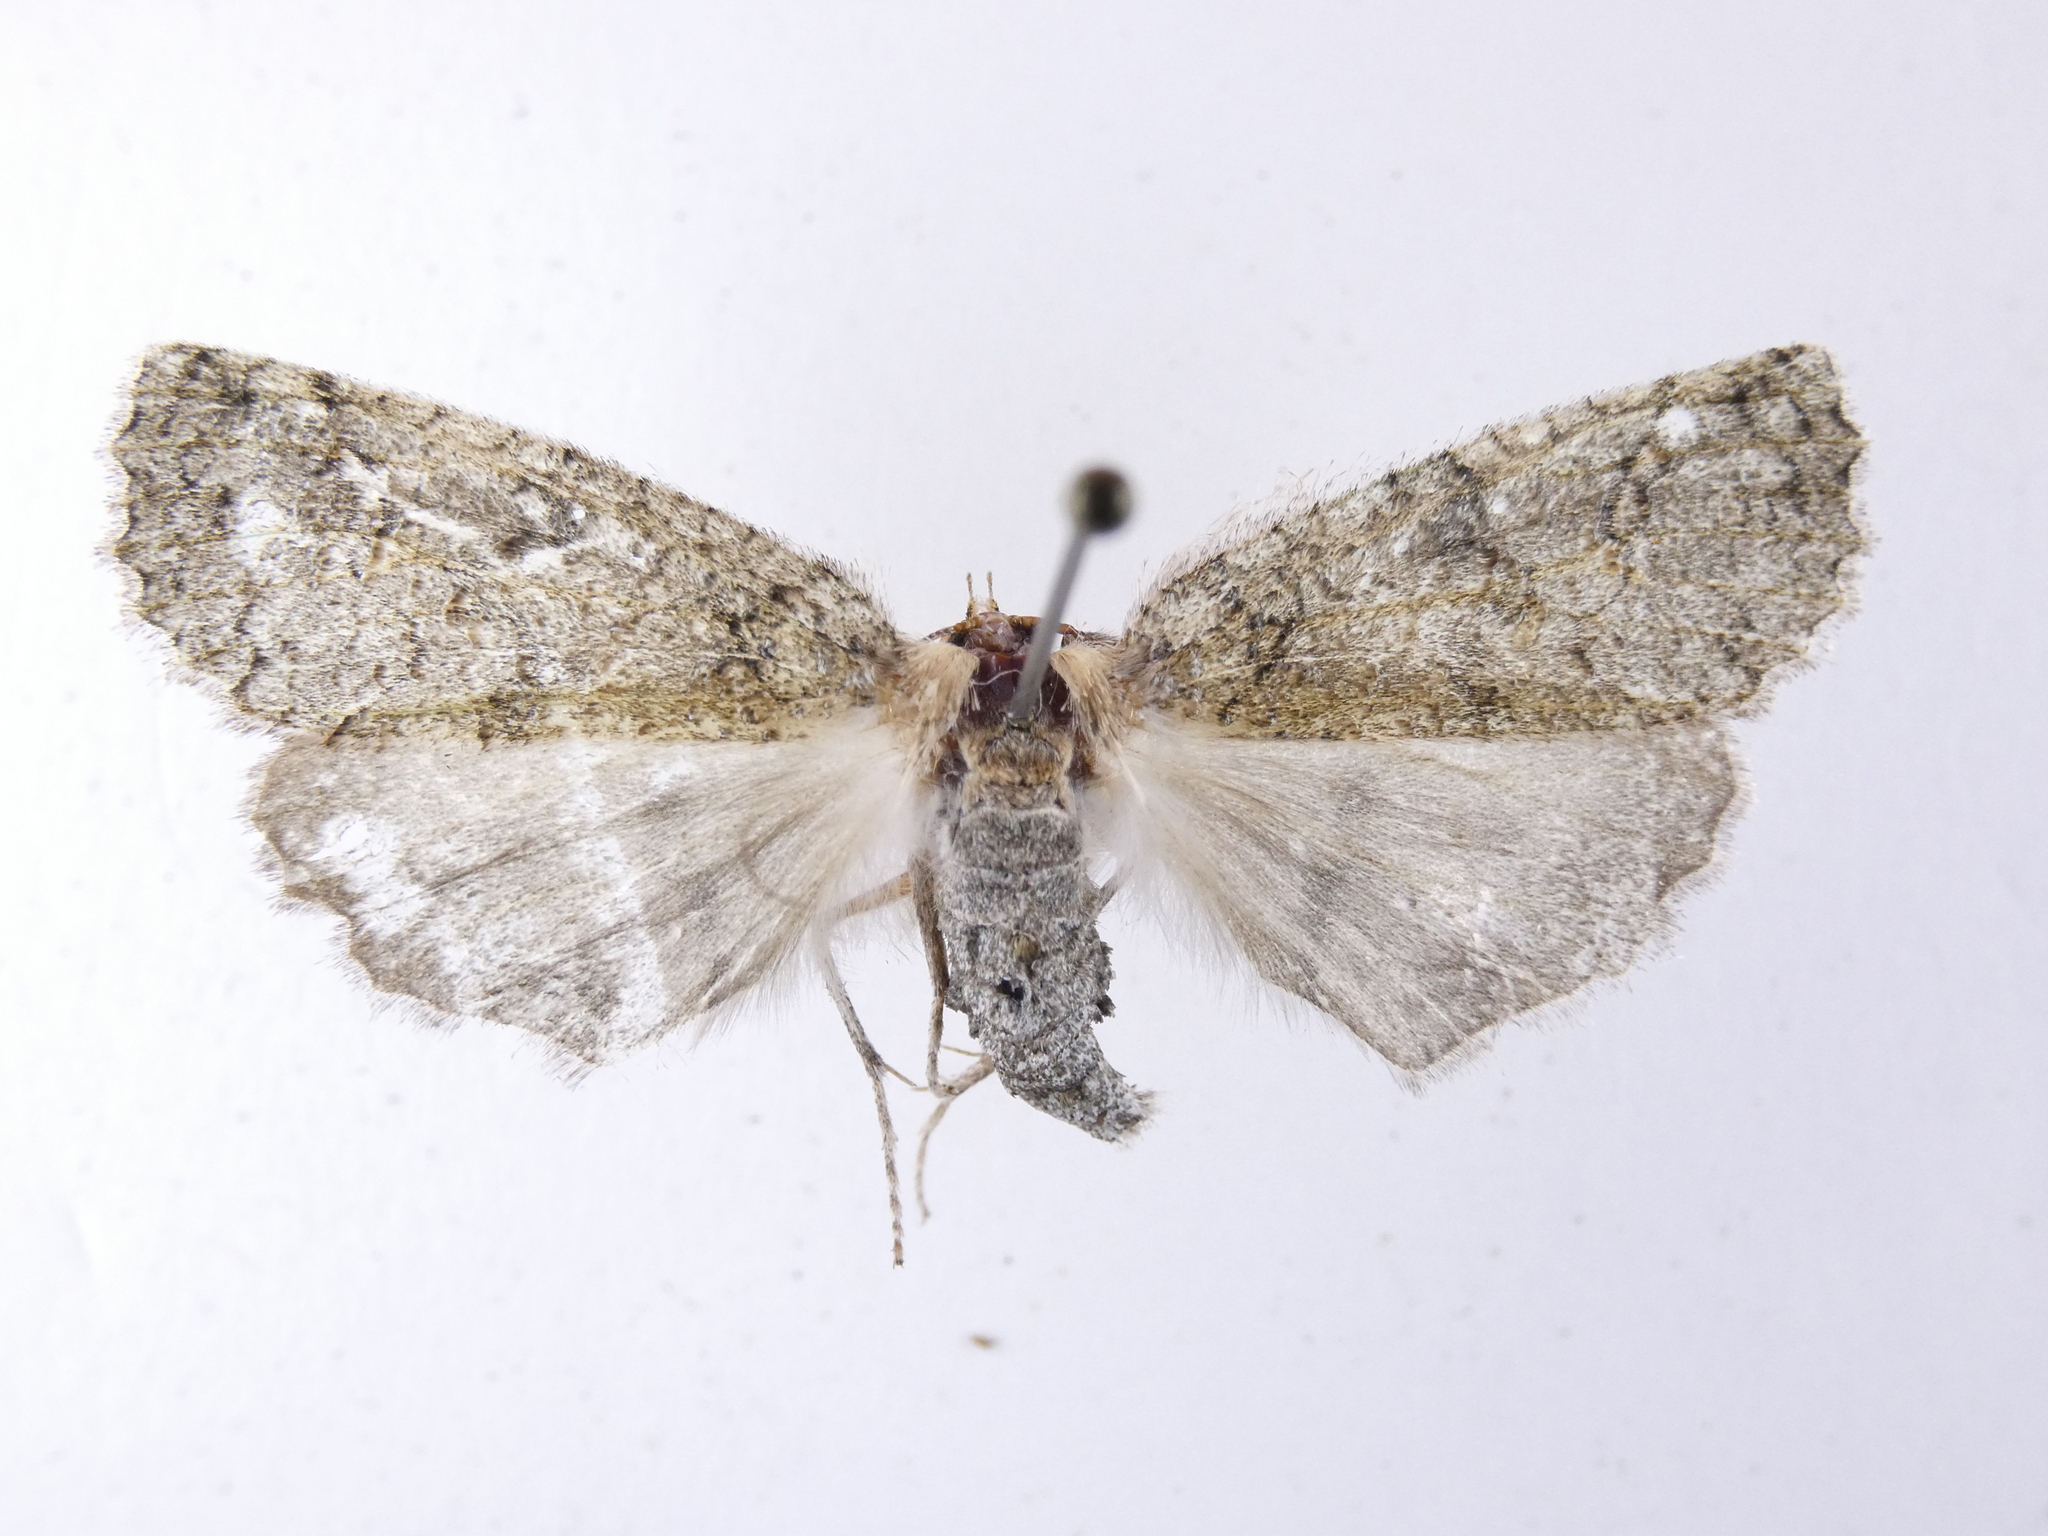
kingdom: Animalia
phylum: Arthropoda
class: Insecta
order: Lepidoptera
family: Geometridae
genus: Declana
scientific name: Declana floccosa
